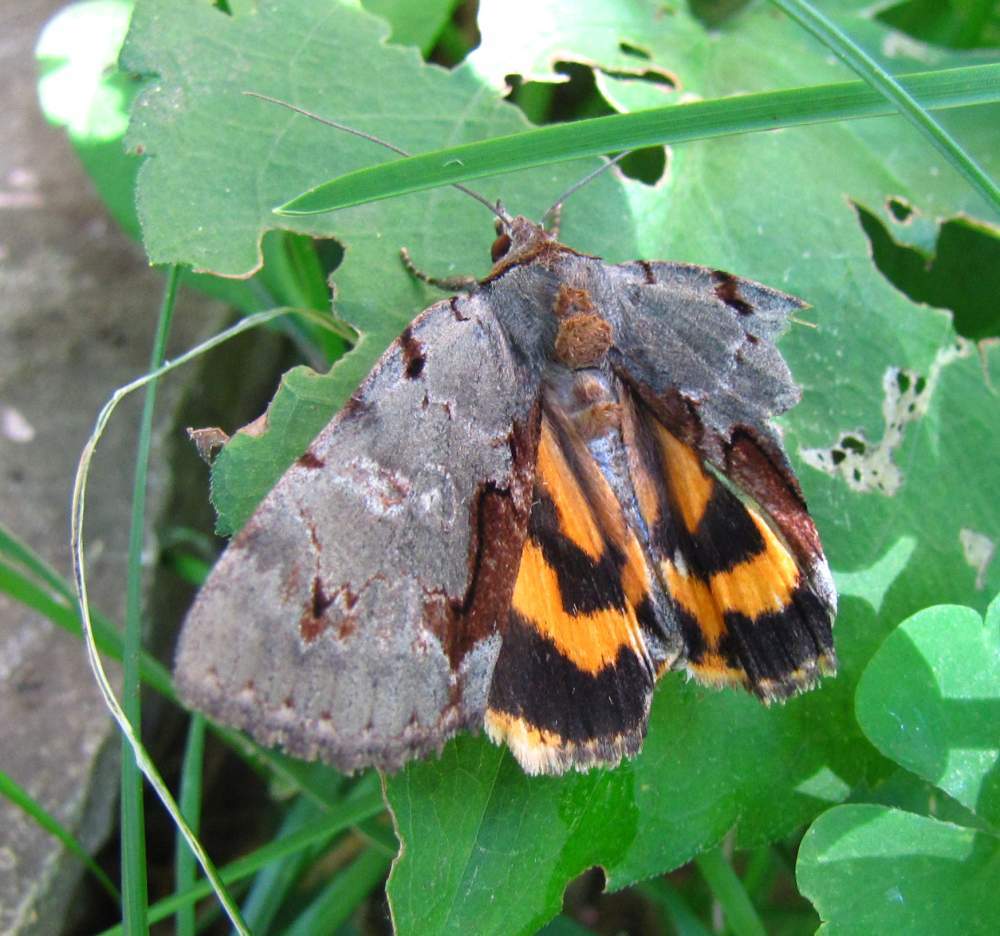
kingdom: Animalia
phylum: Arthropoda
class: Insecta
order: Lepidoptera
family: Erebidae
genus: Catocala
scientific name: Catocala grynea
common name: Woody underwing
